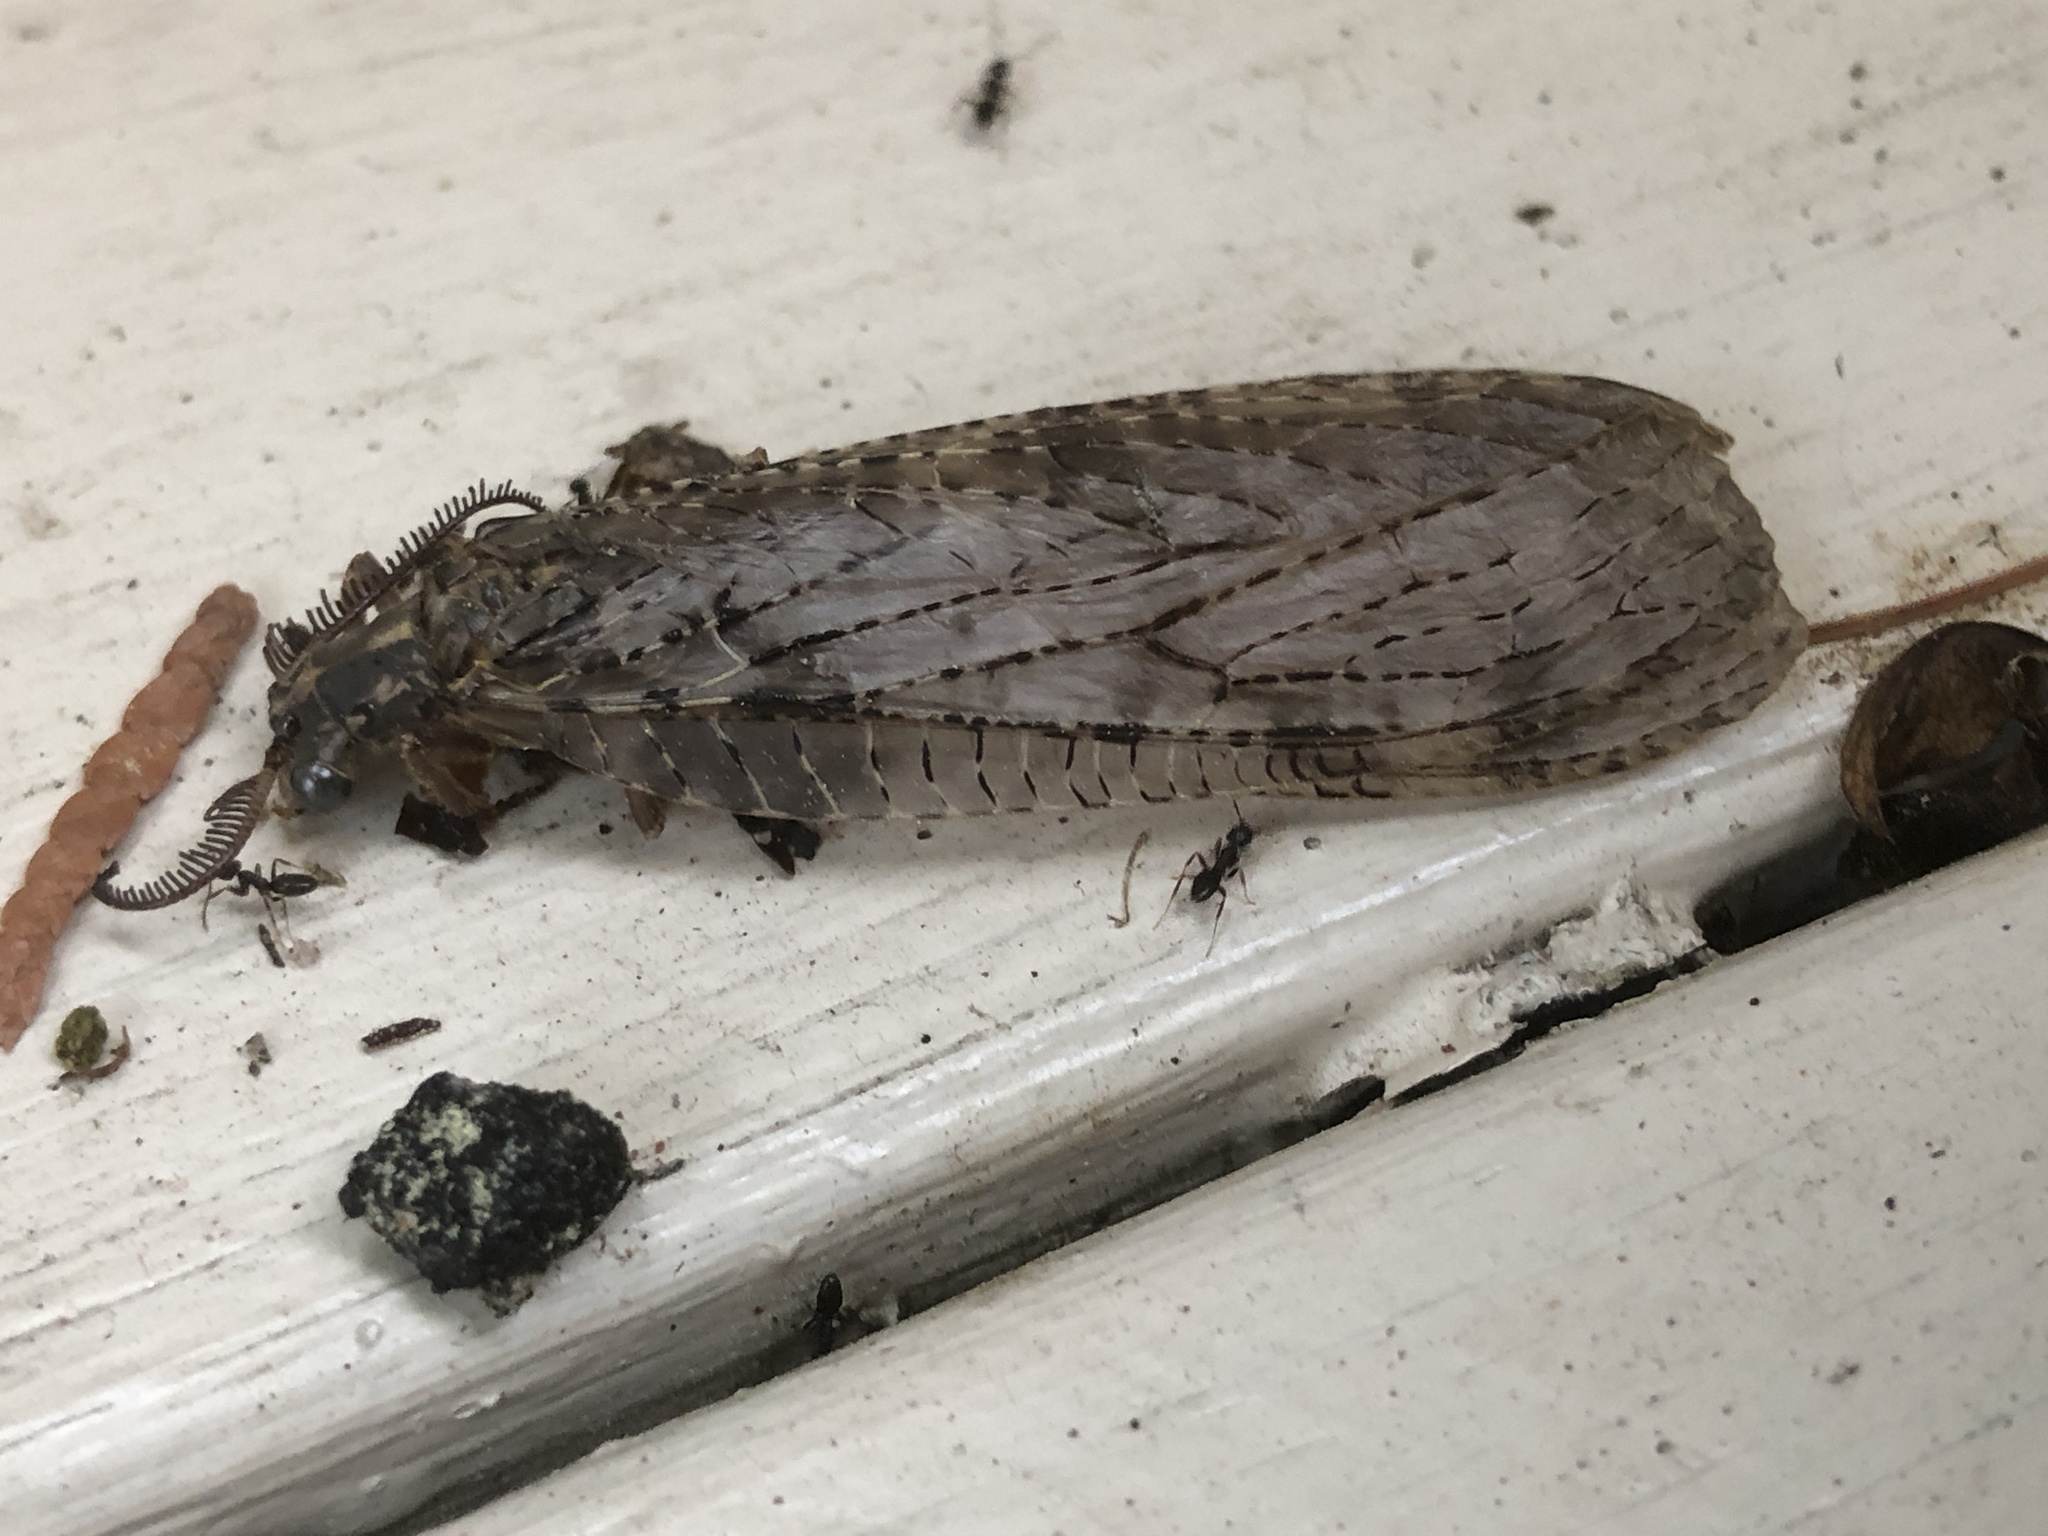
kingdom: Animalia
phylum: Arthropoda
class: Insecta
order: Megaloptera
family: Corydalidae
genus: Chauliodes
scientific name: Chauliodes pectinicornis
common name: Summer fishfly
